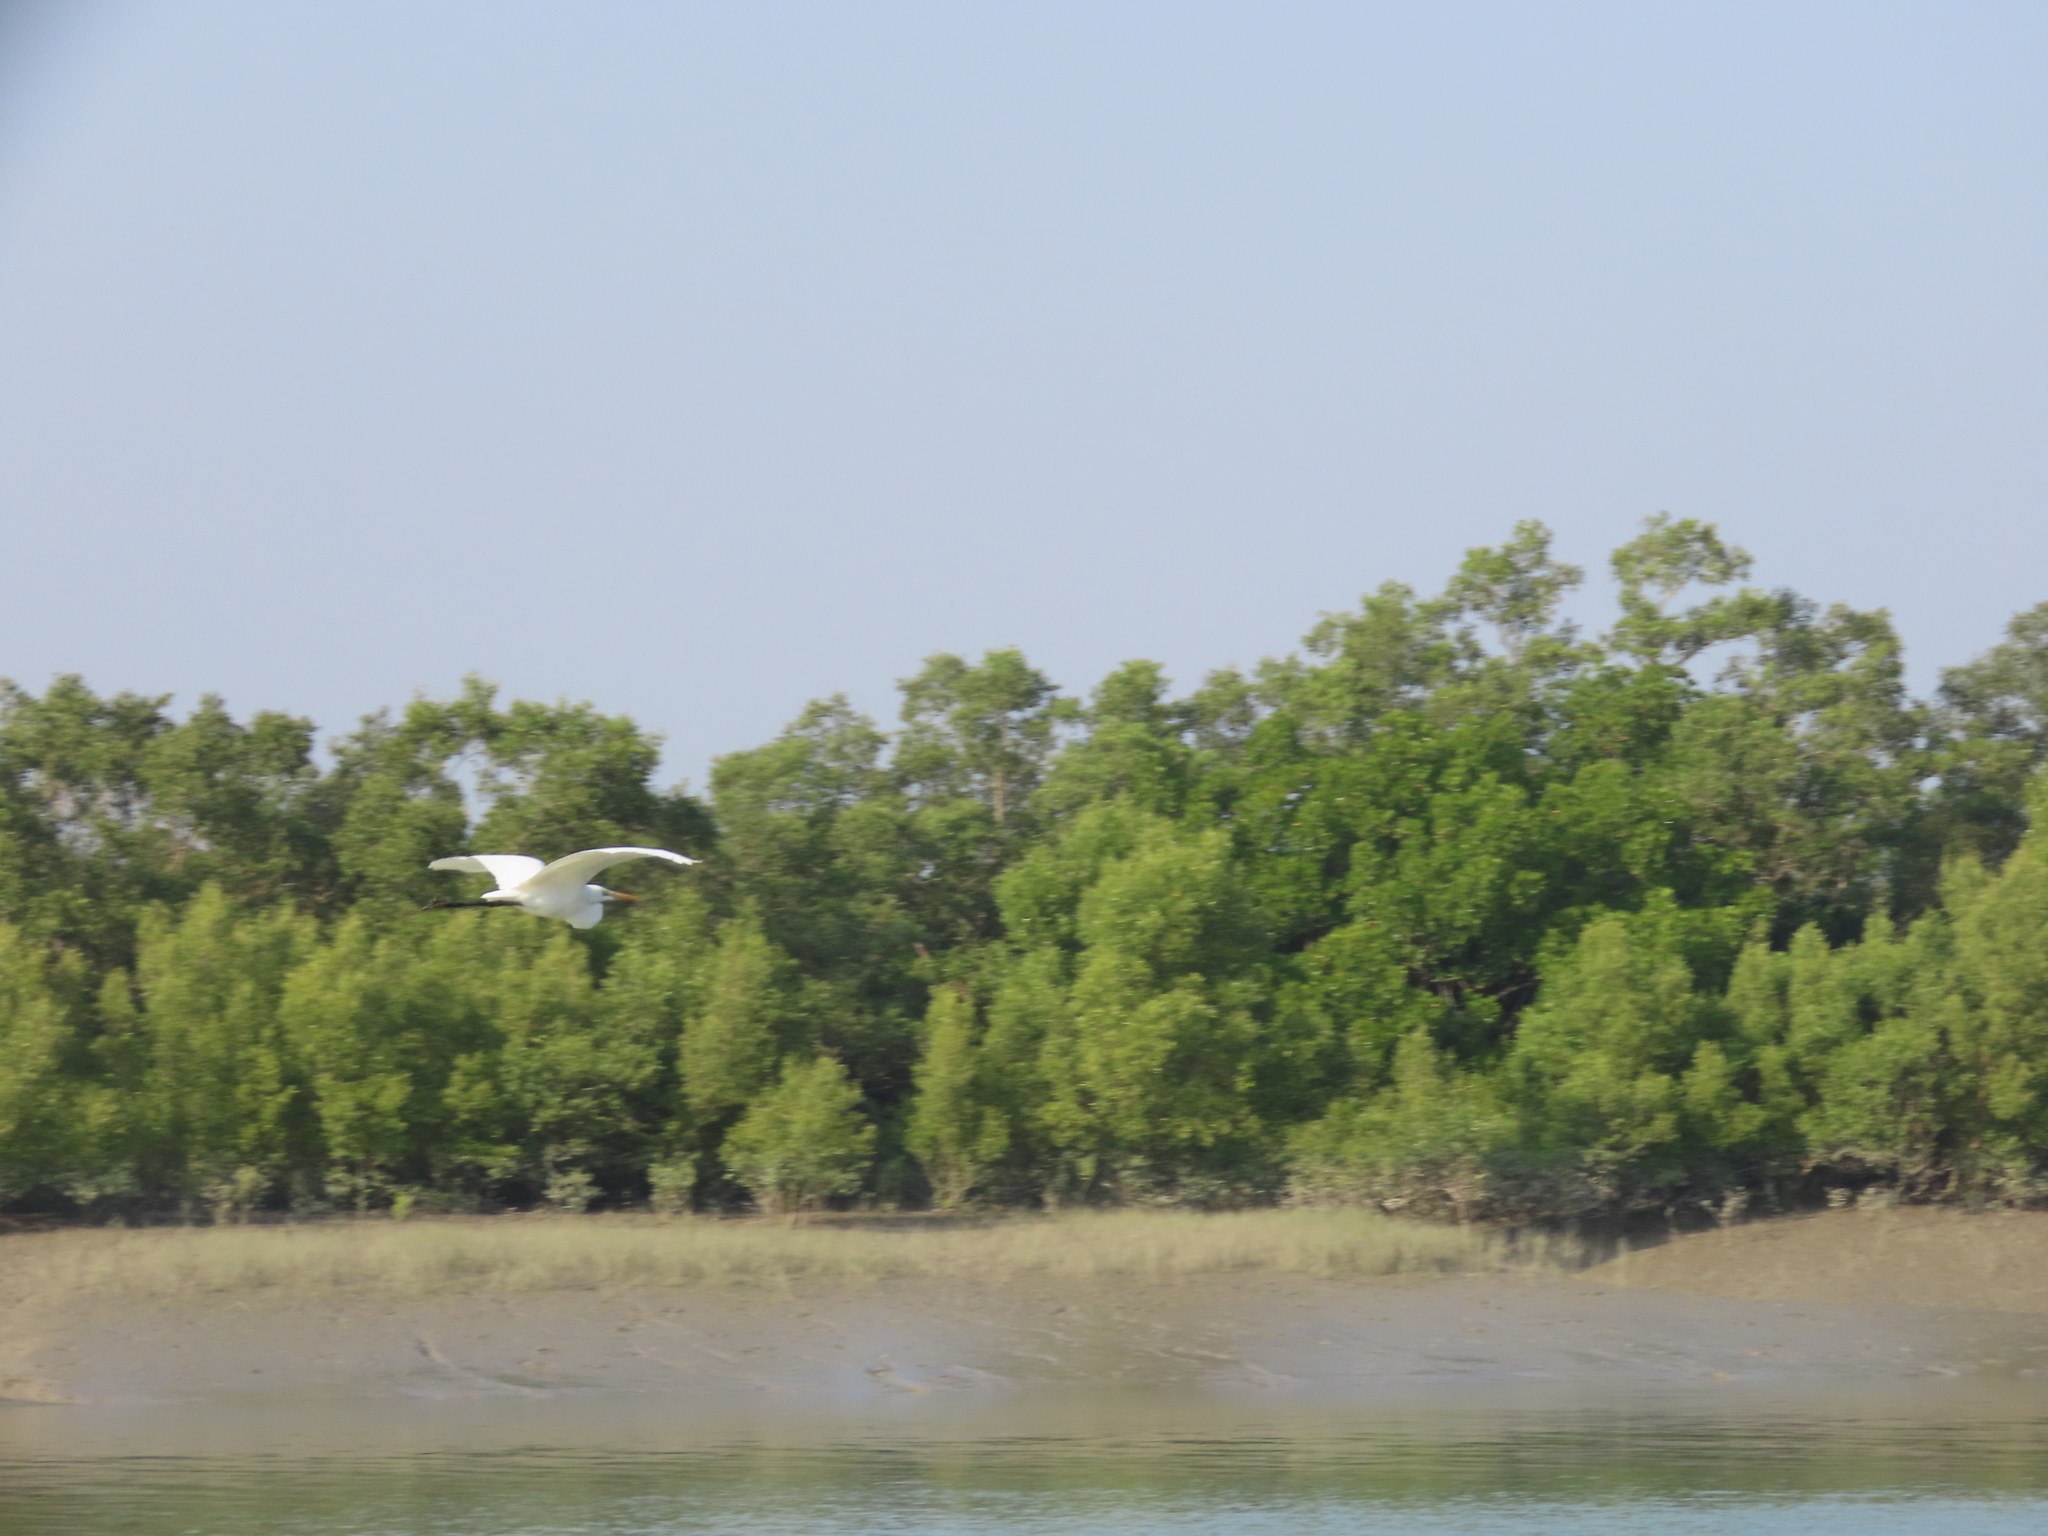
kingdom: Animalia
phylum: Chordata
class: Aves
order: Pelecaniformes
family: Ardeidae
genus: Ardea
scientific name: Ardea alba
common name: Great egret
